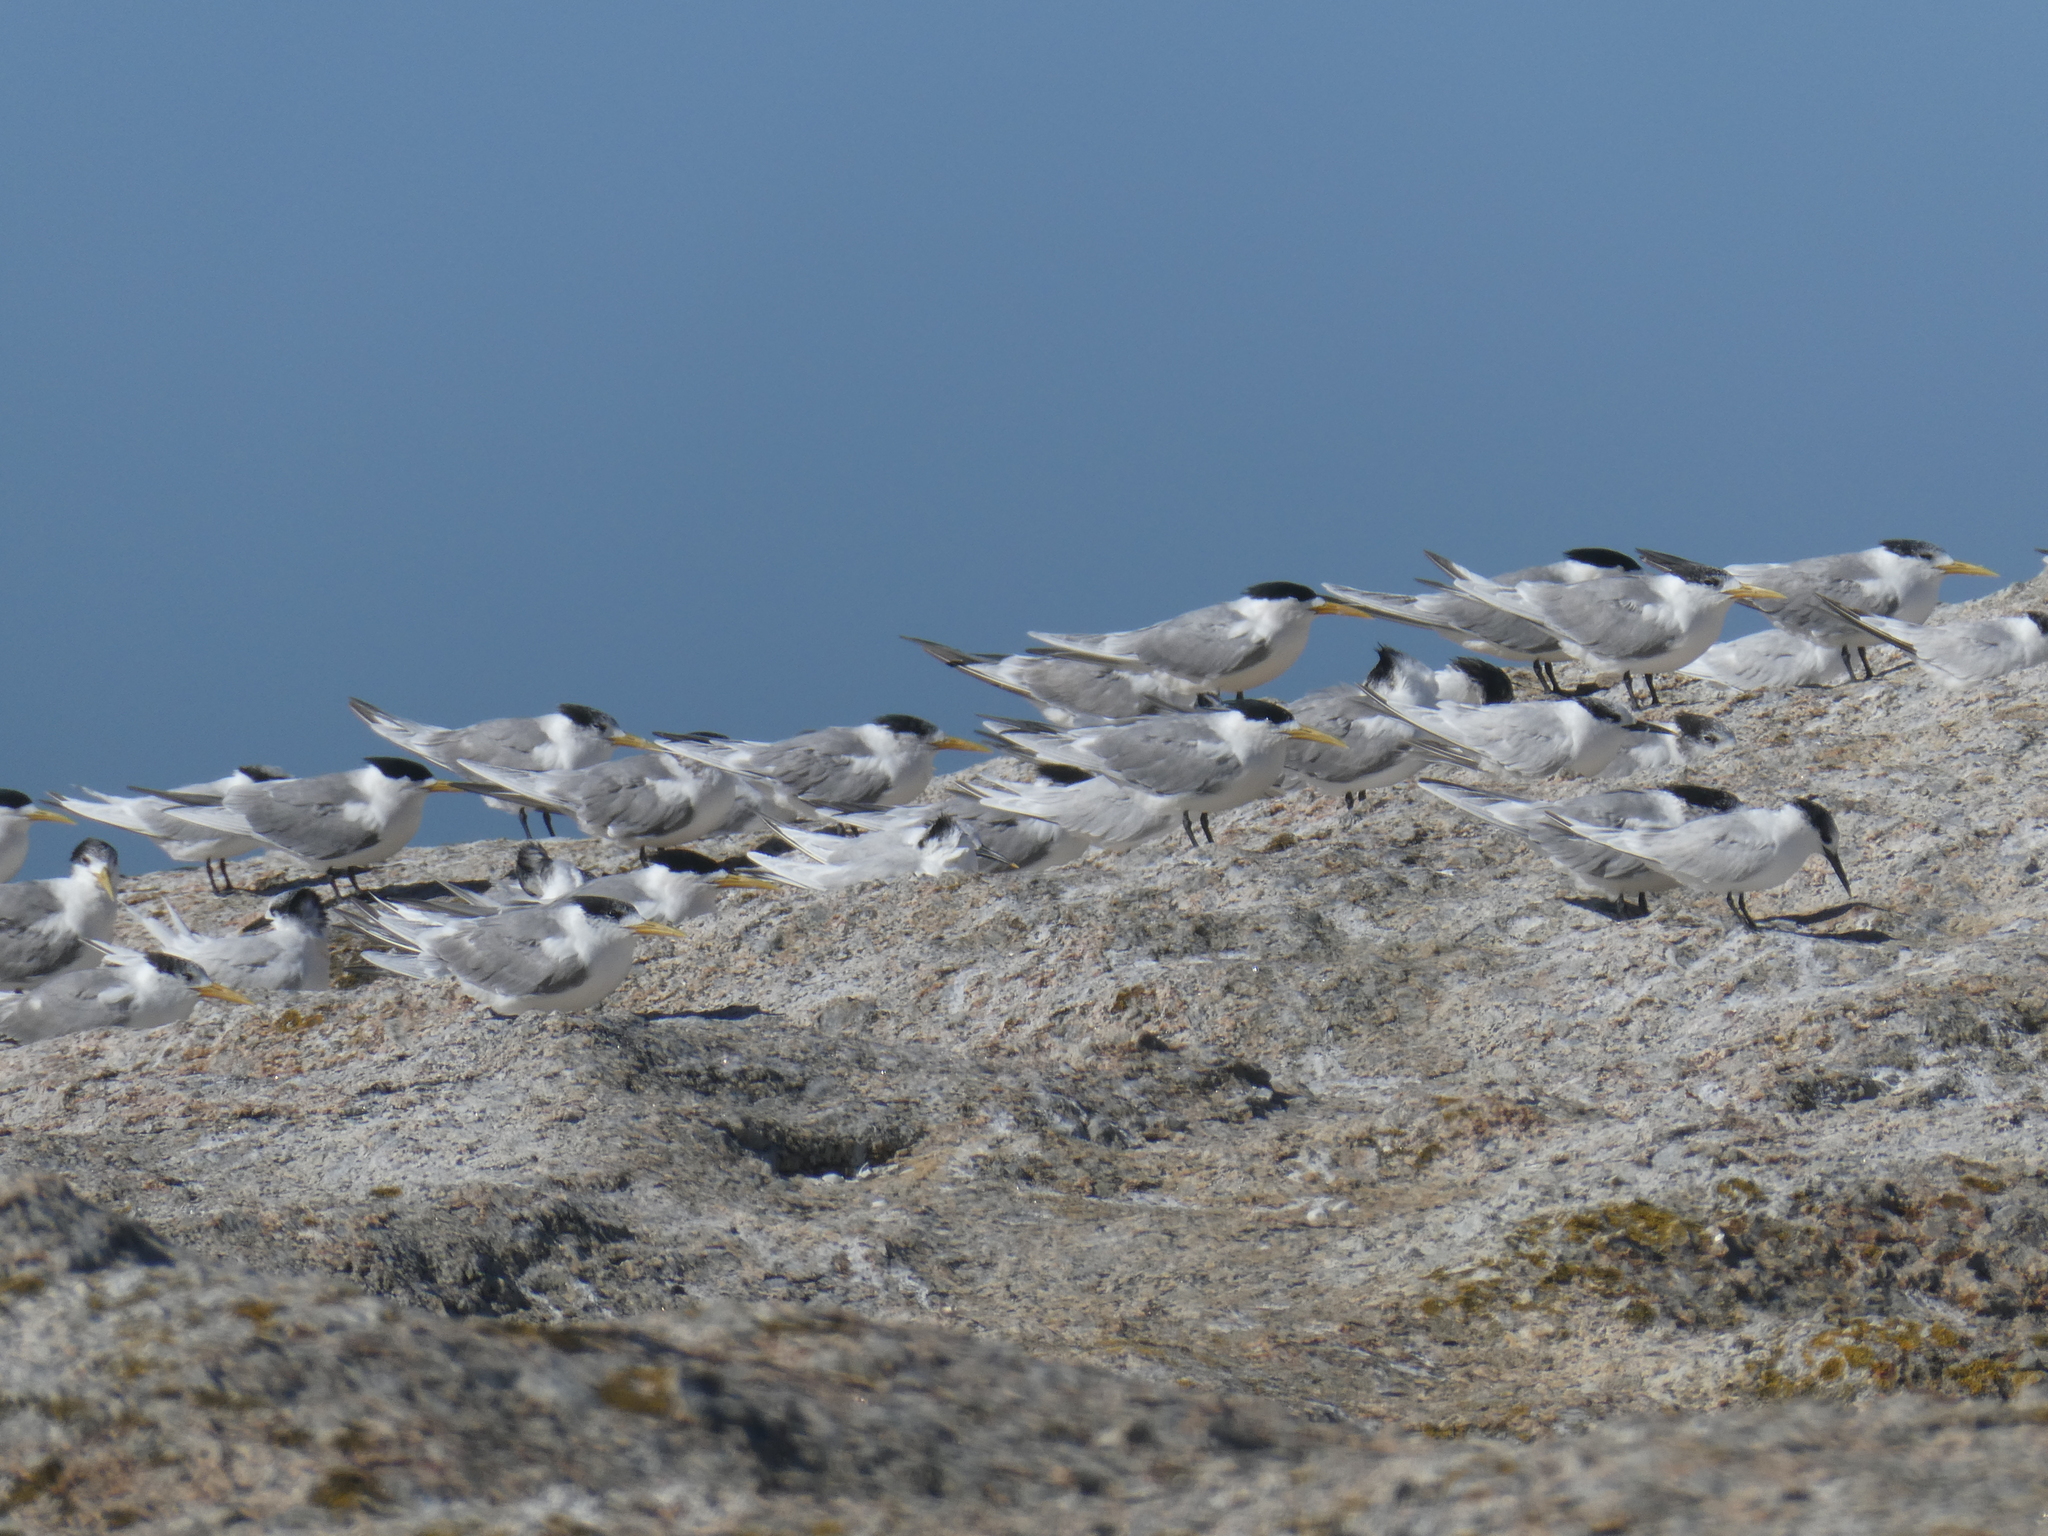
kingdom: Animalia
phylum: Chordata
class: Aves
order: Charadriiformes
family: Laridae
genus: Thalasseus
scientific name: Thalasseus bergii
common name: Greater crested tern
